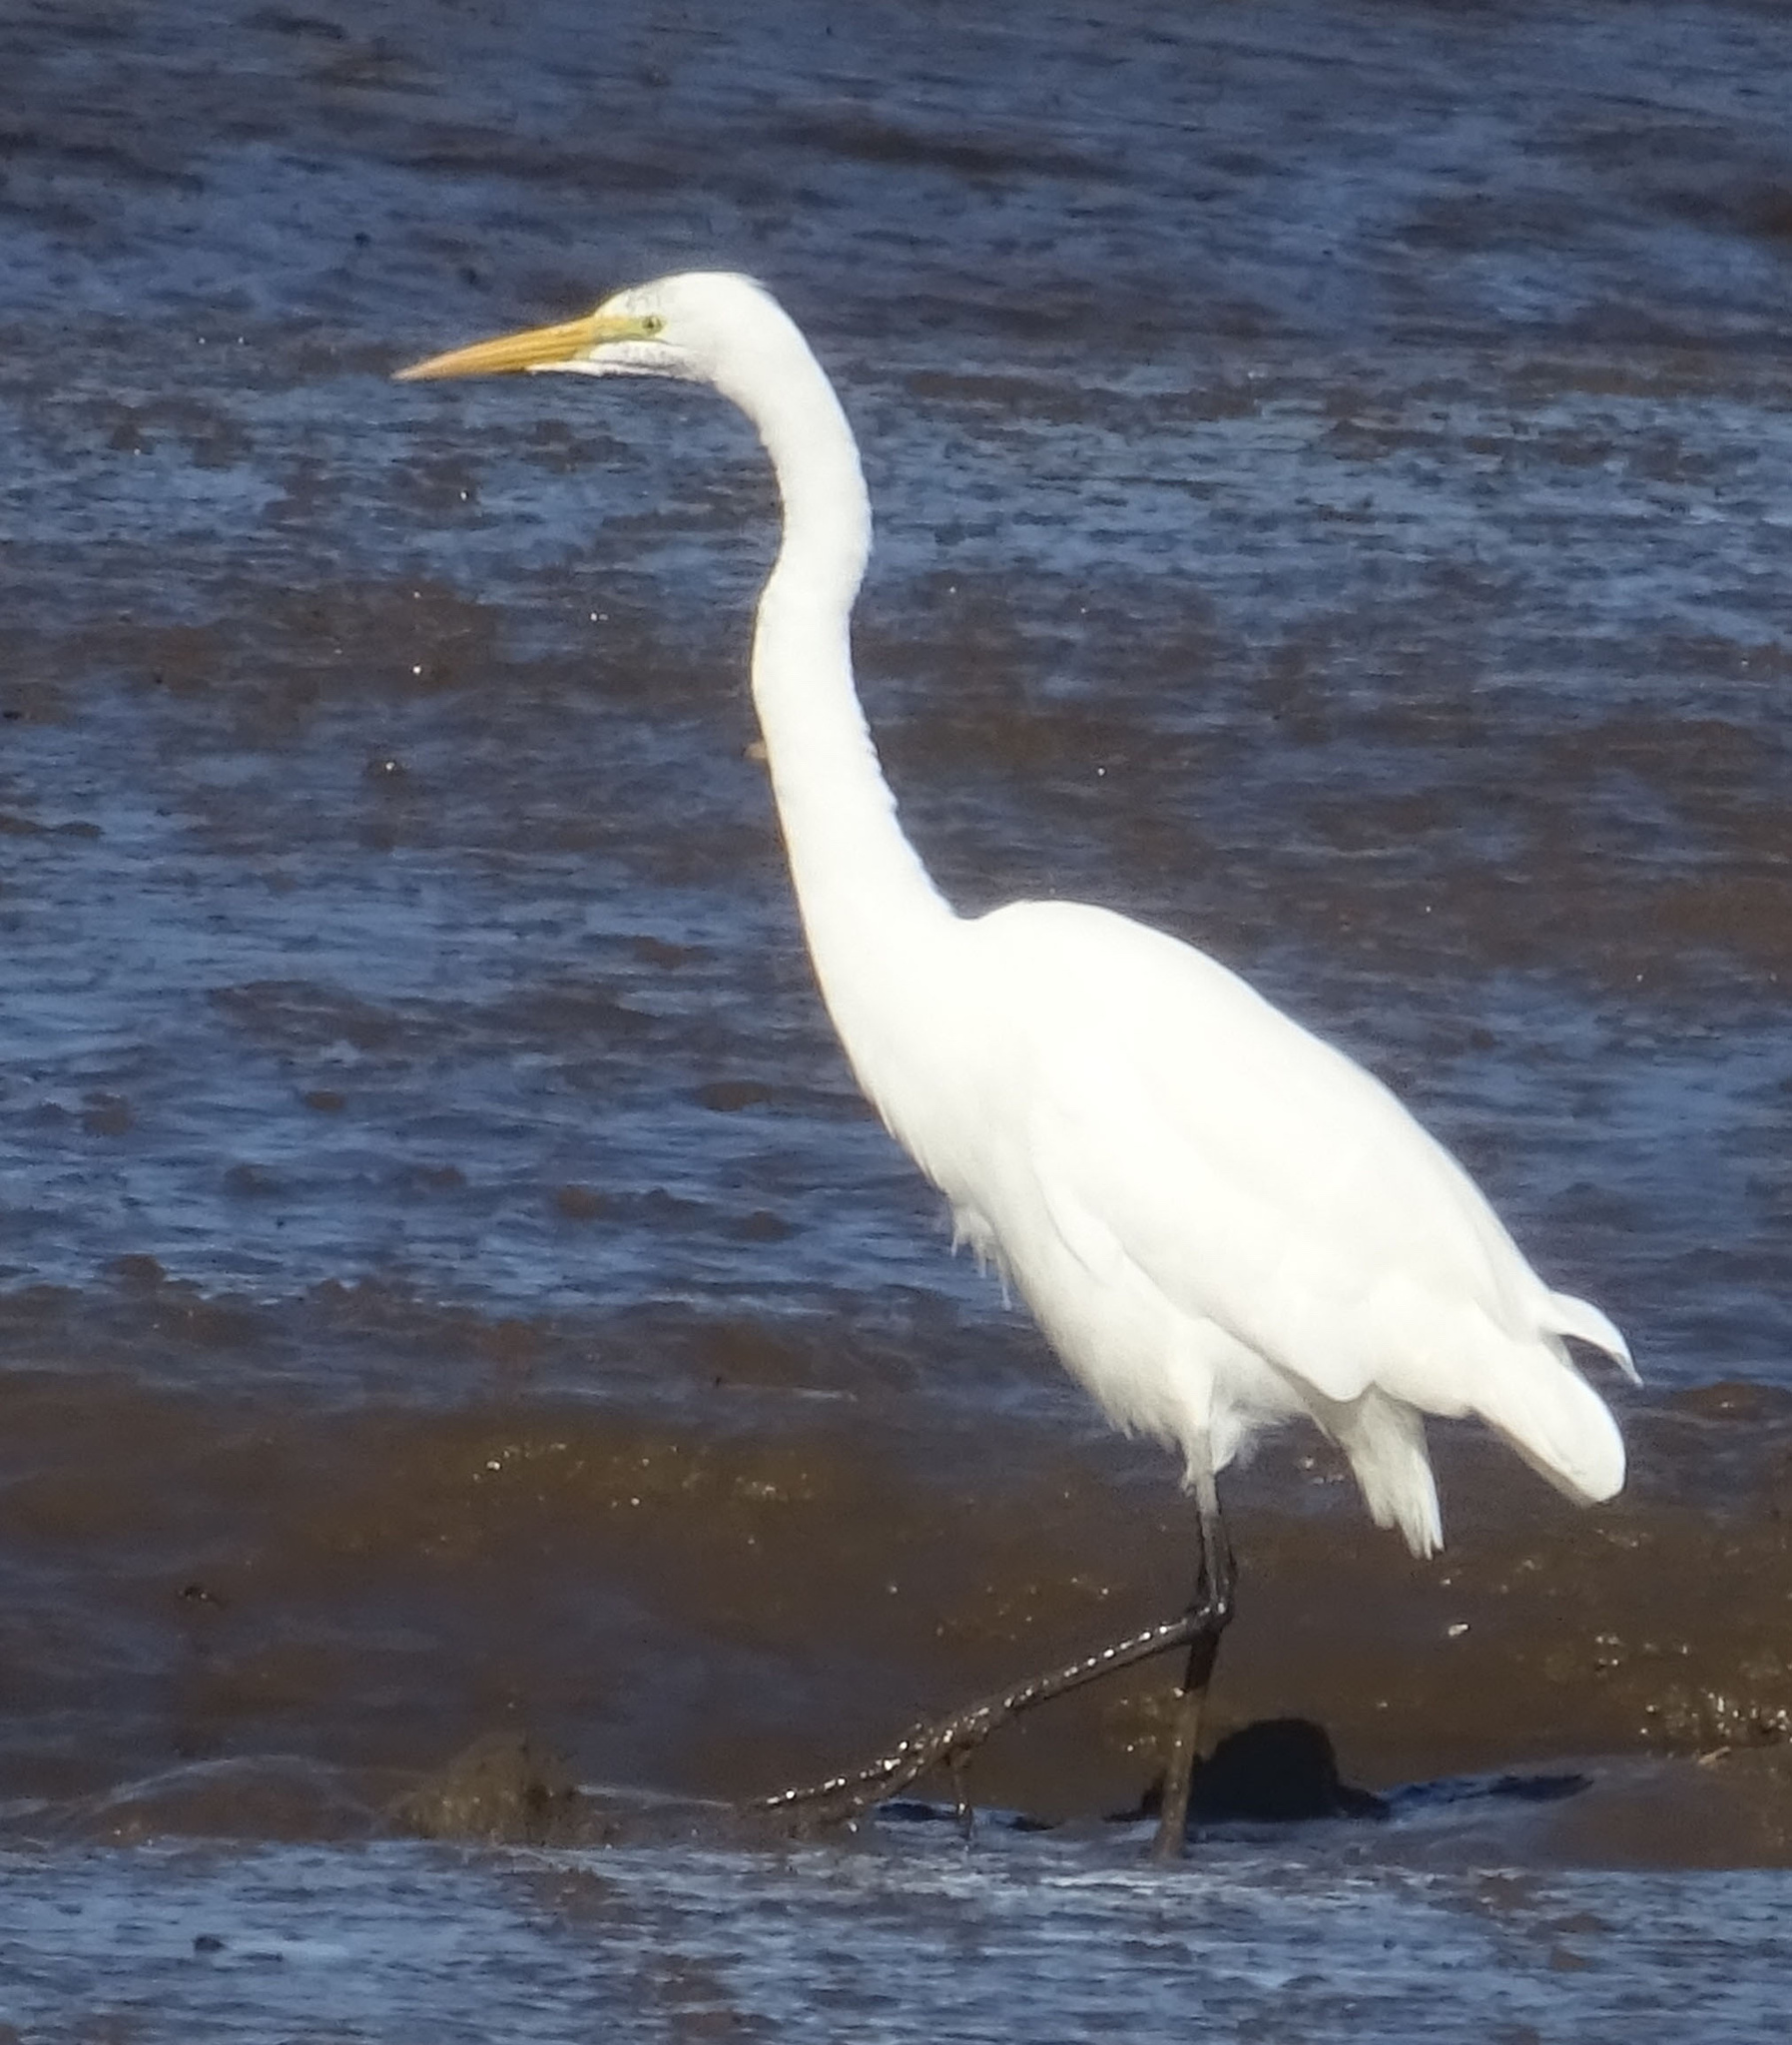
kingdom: Animalia
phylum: Chordata
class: Aves
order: Pelecaniformes
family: Ardeidae
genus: Ardea
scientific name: Ardea alba
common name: Great egret
